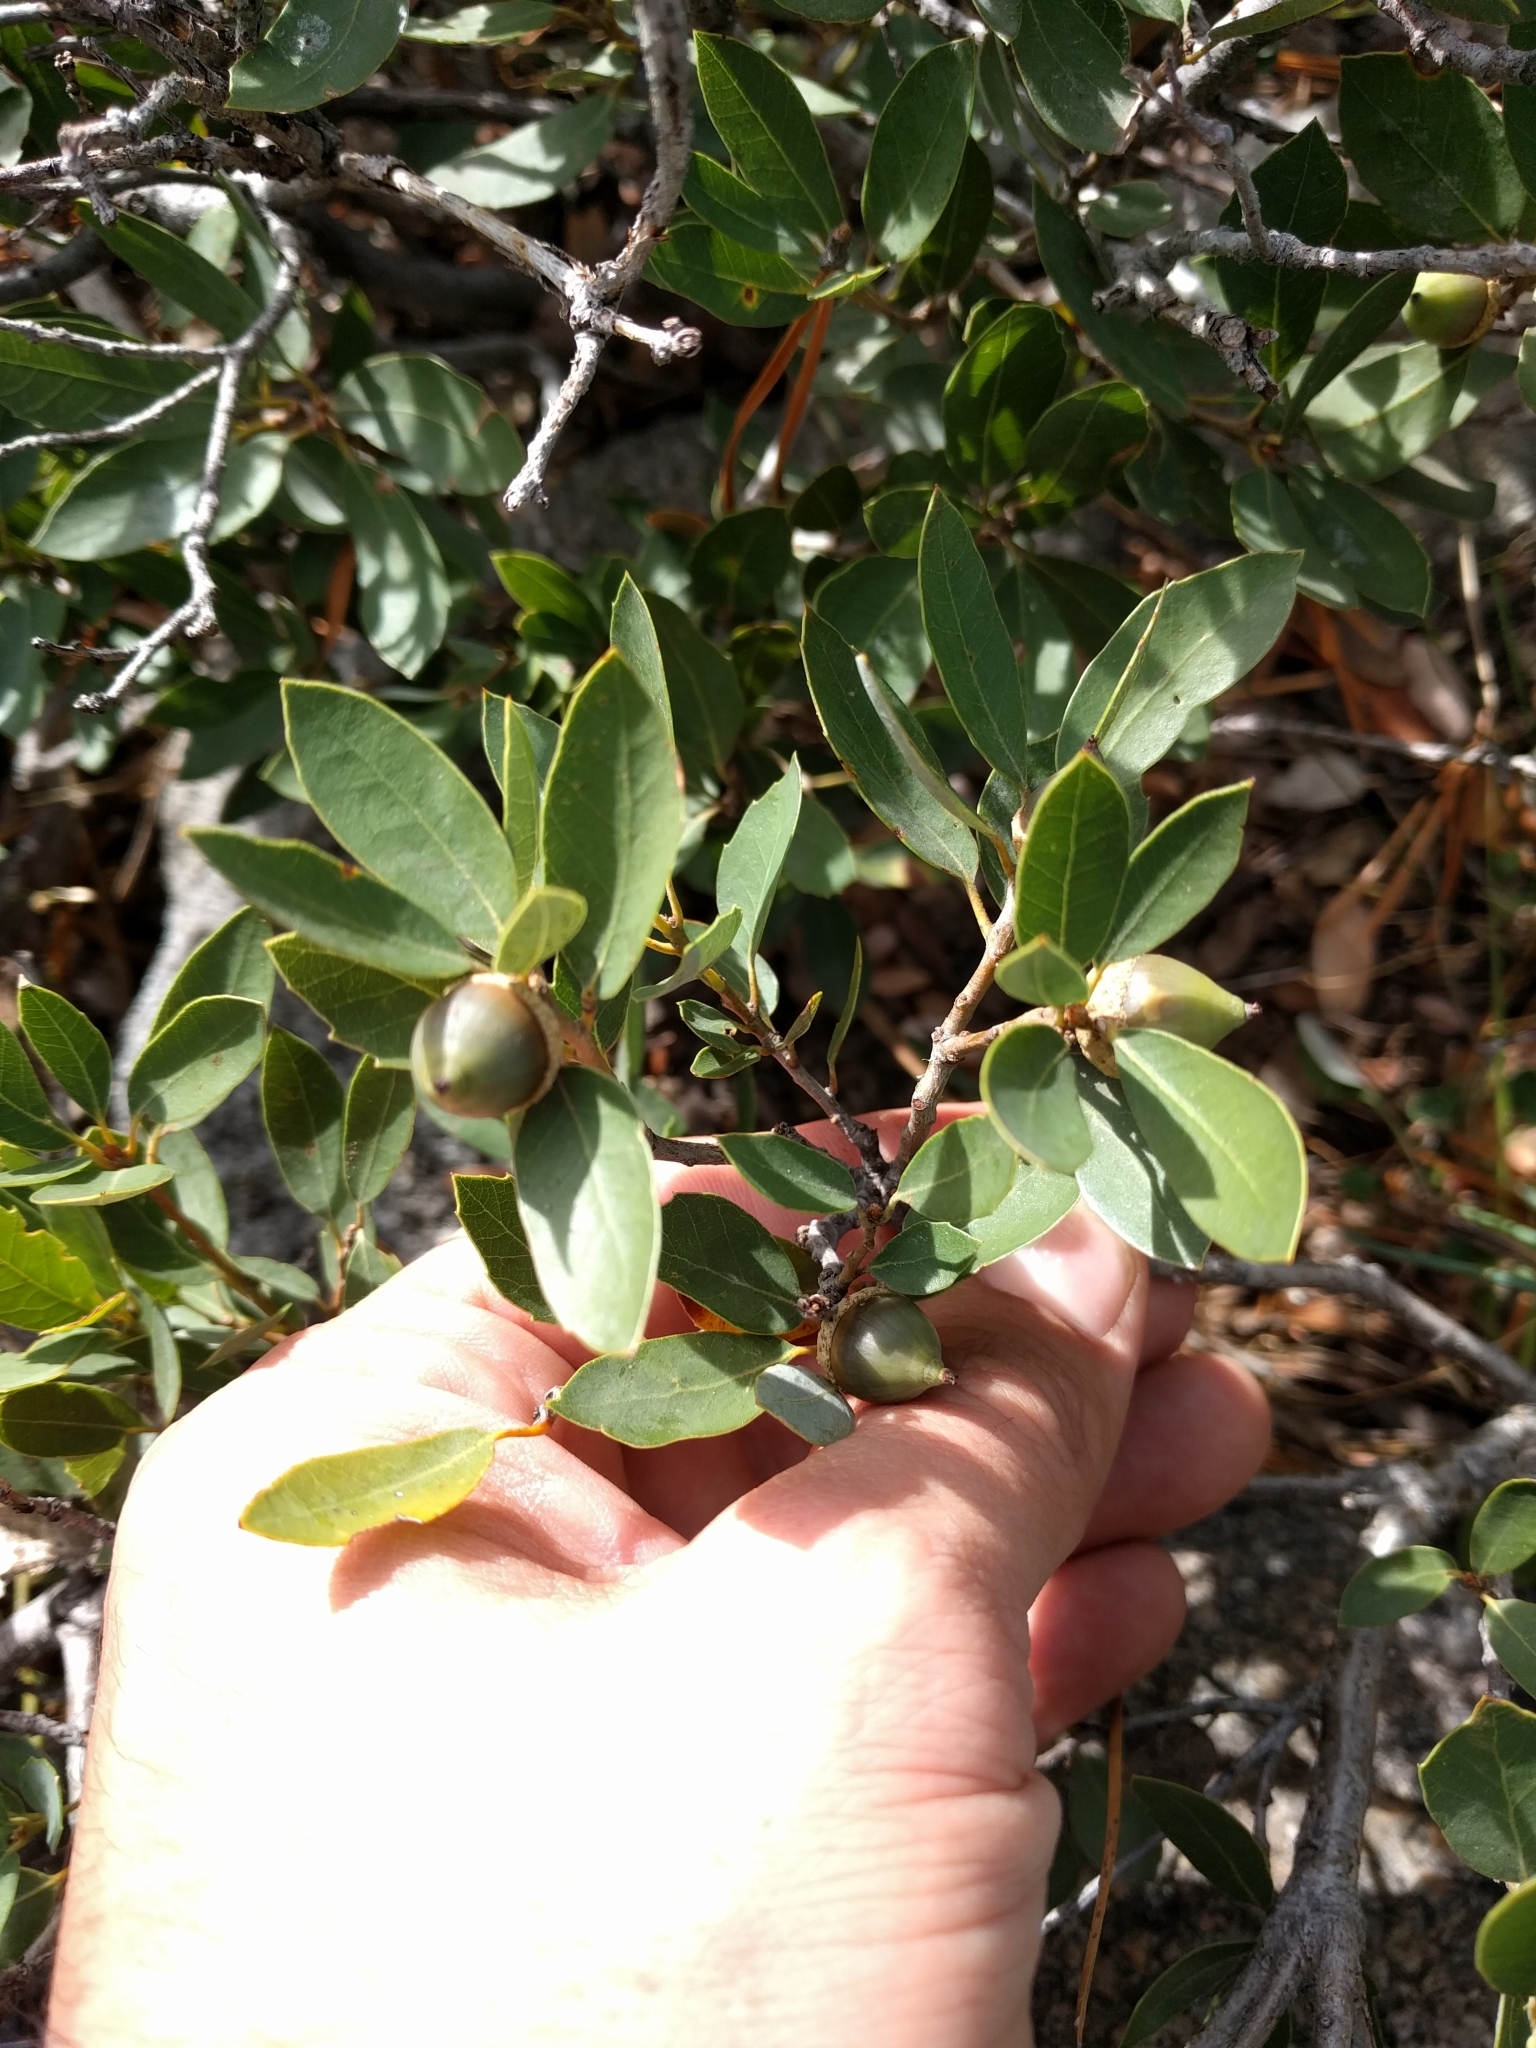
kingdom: Plantae
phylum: Tracheophyta
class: Magnoliopsida
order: Fagales
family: Fagaceae
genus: Quercus
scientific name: Quercus vacciniifolia
